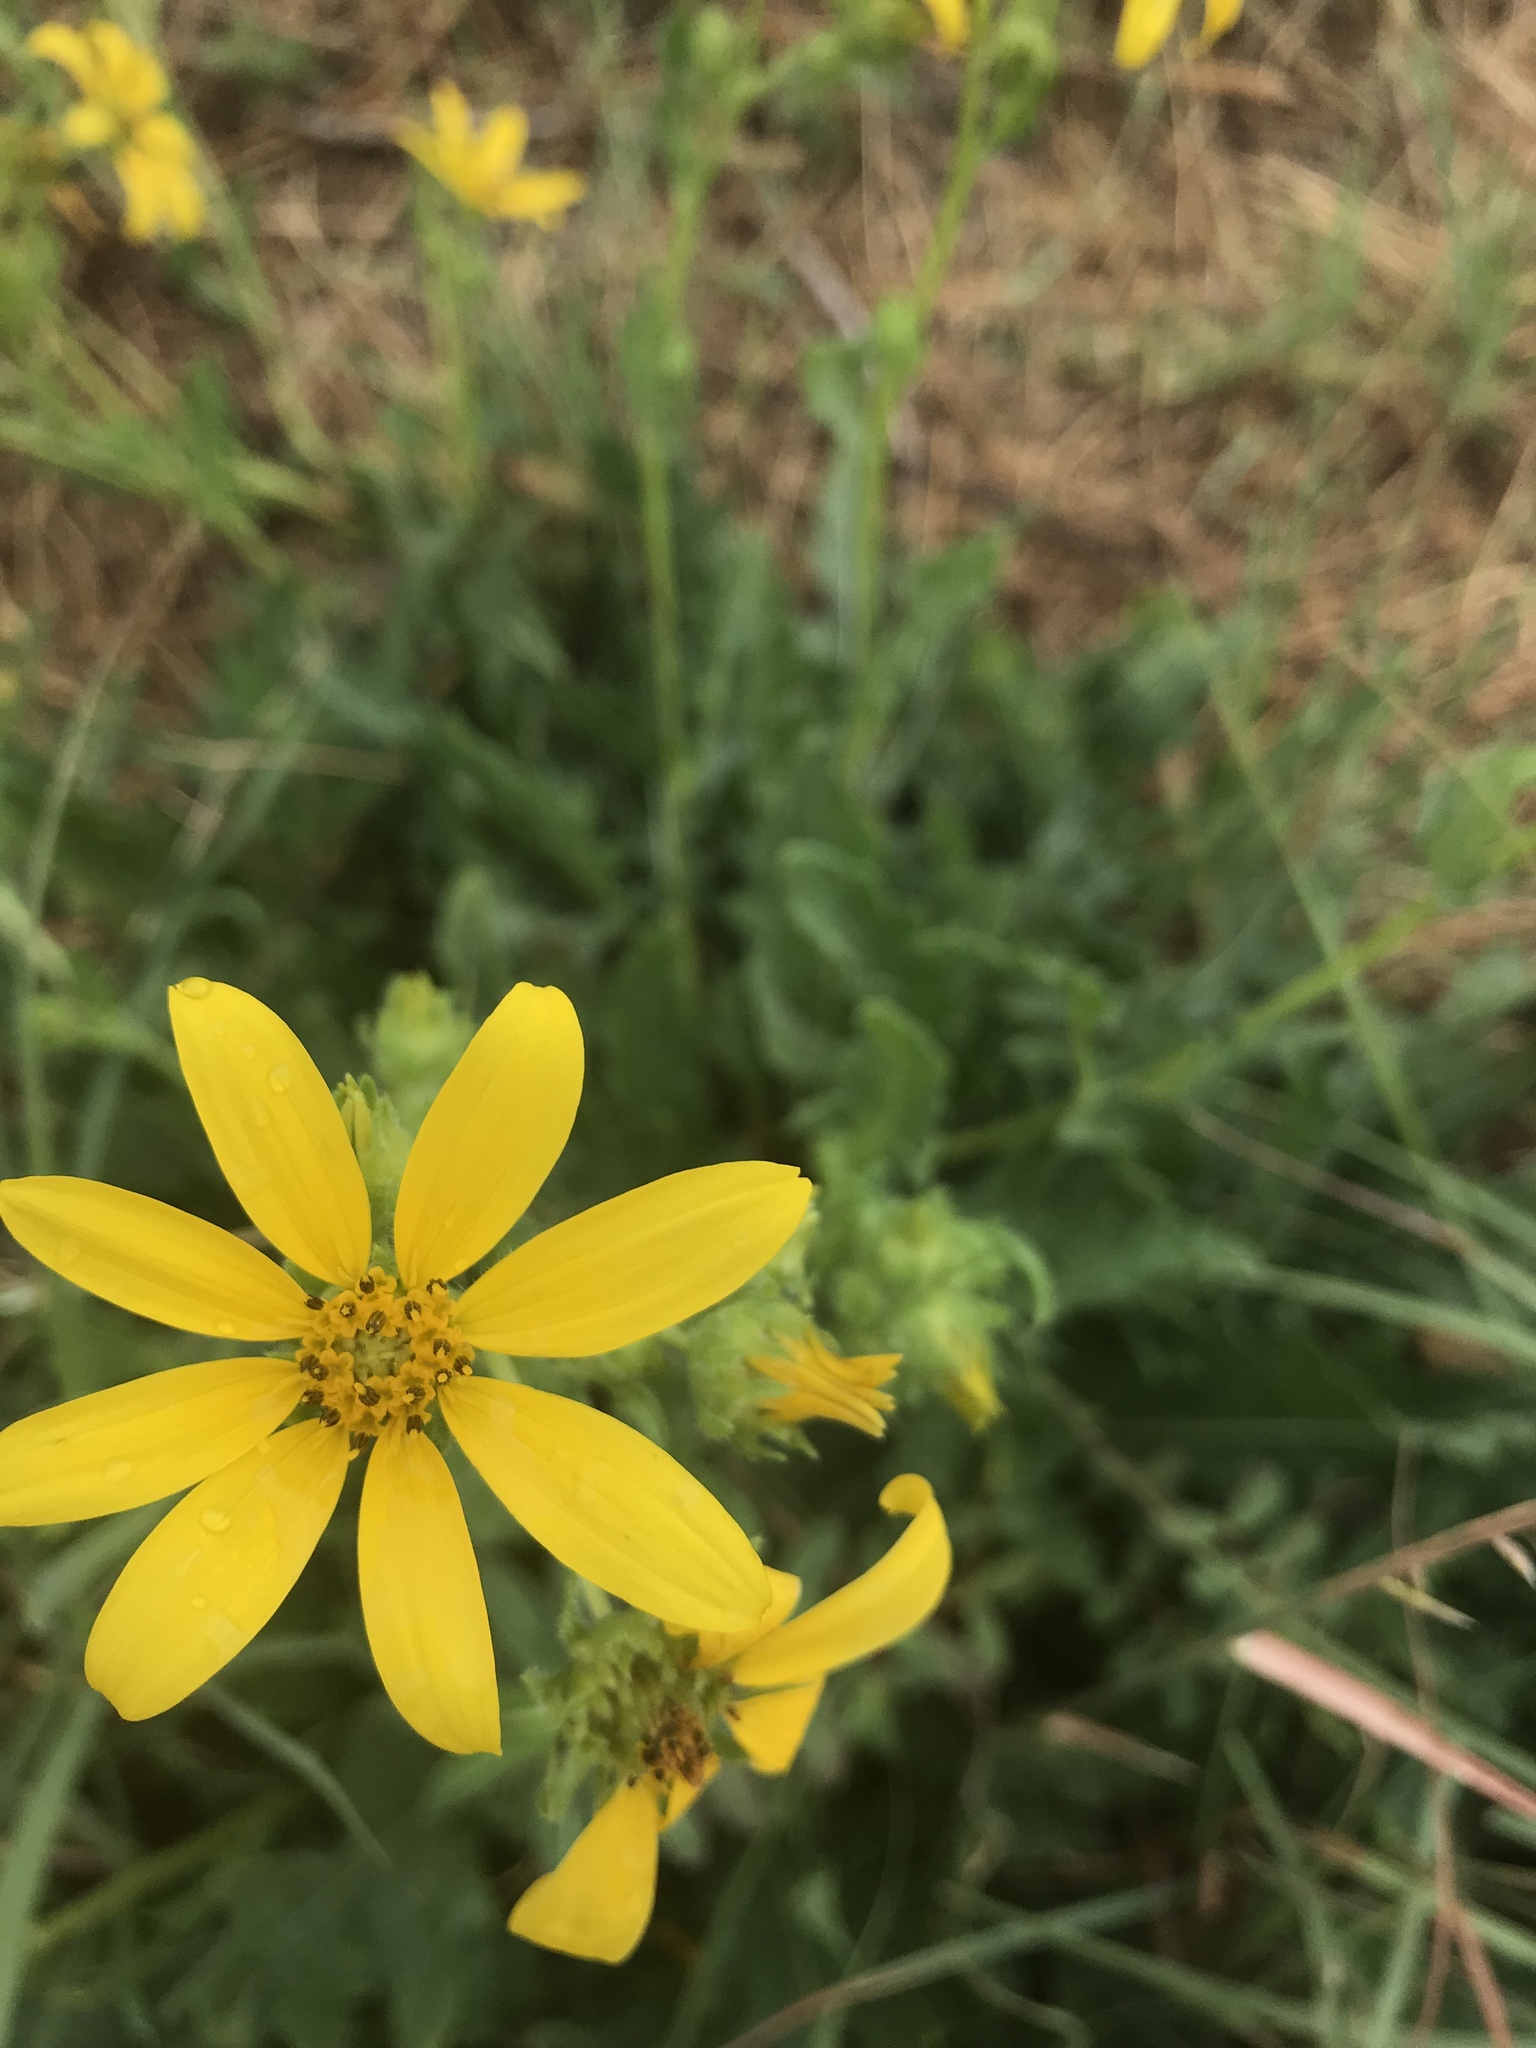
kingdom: Plantae
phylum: Tracheophyta
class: Magnoliopsida
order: Asterales
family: Asteraceae
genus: Engelmannia
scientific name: Engelmannia peristenia
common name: Engelmann's daisy
